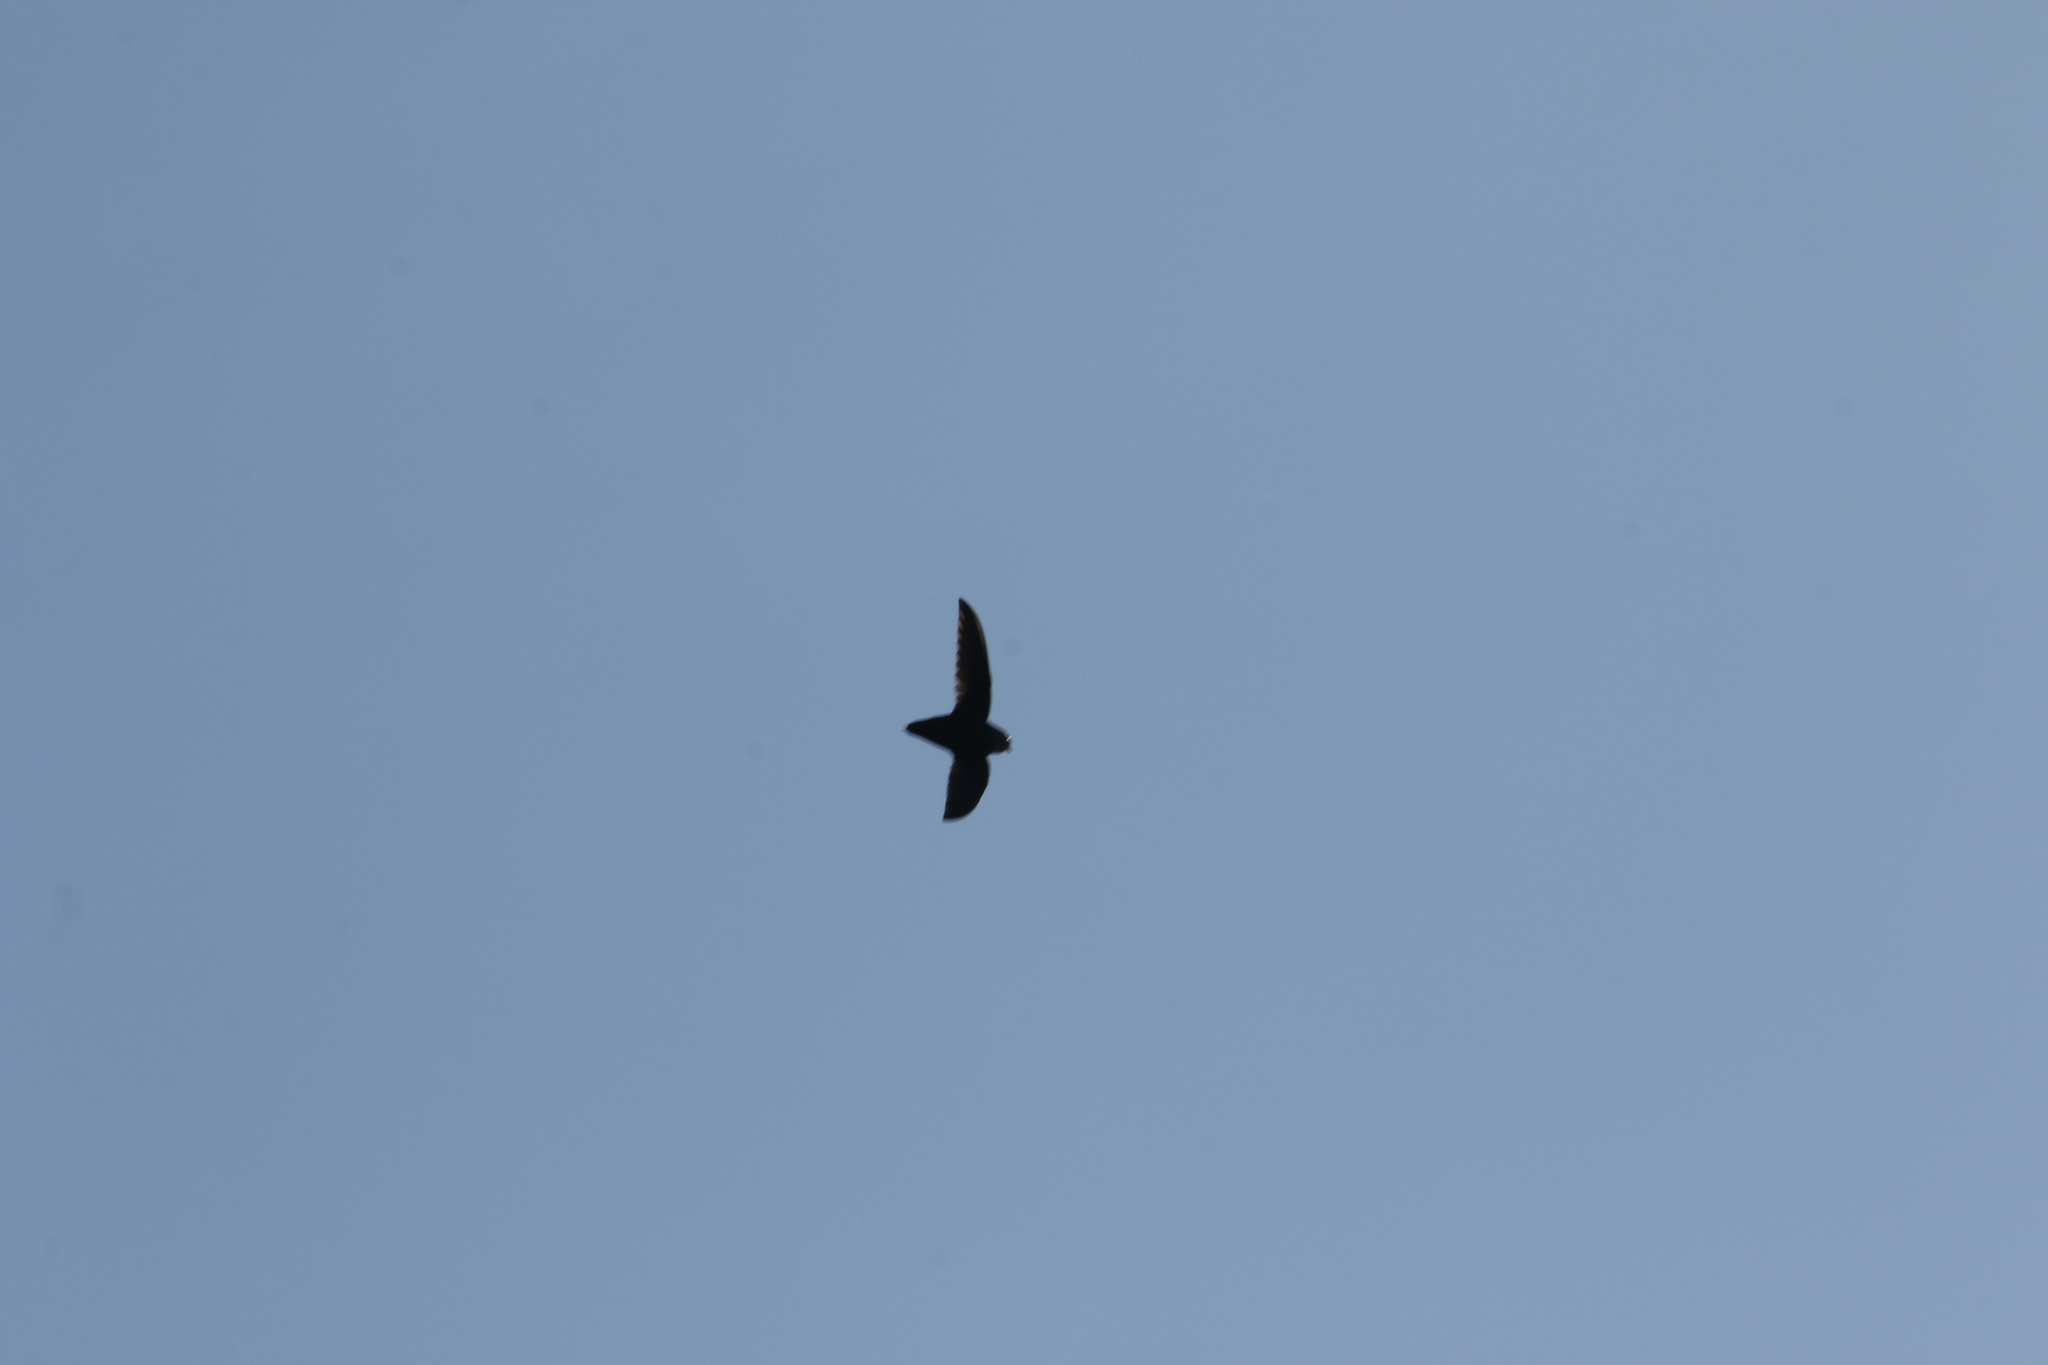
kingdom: Animalia
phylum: Chordata
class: Aves
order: Apodiformes
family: Apodidae
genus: Chaetura
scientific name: Chaetura pelagica
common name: Chimney swift
